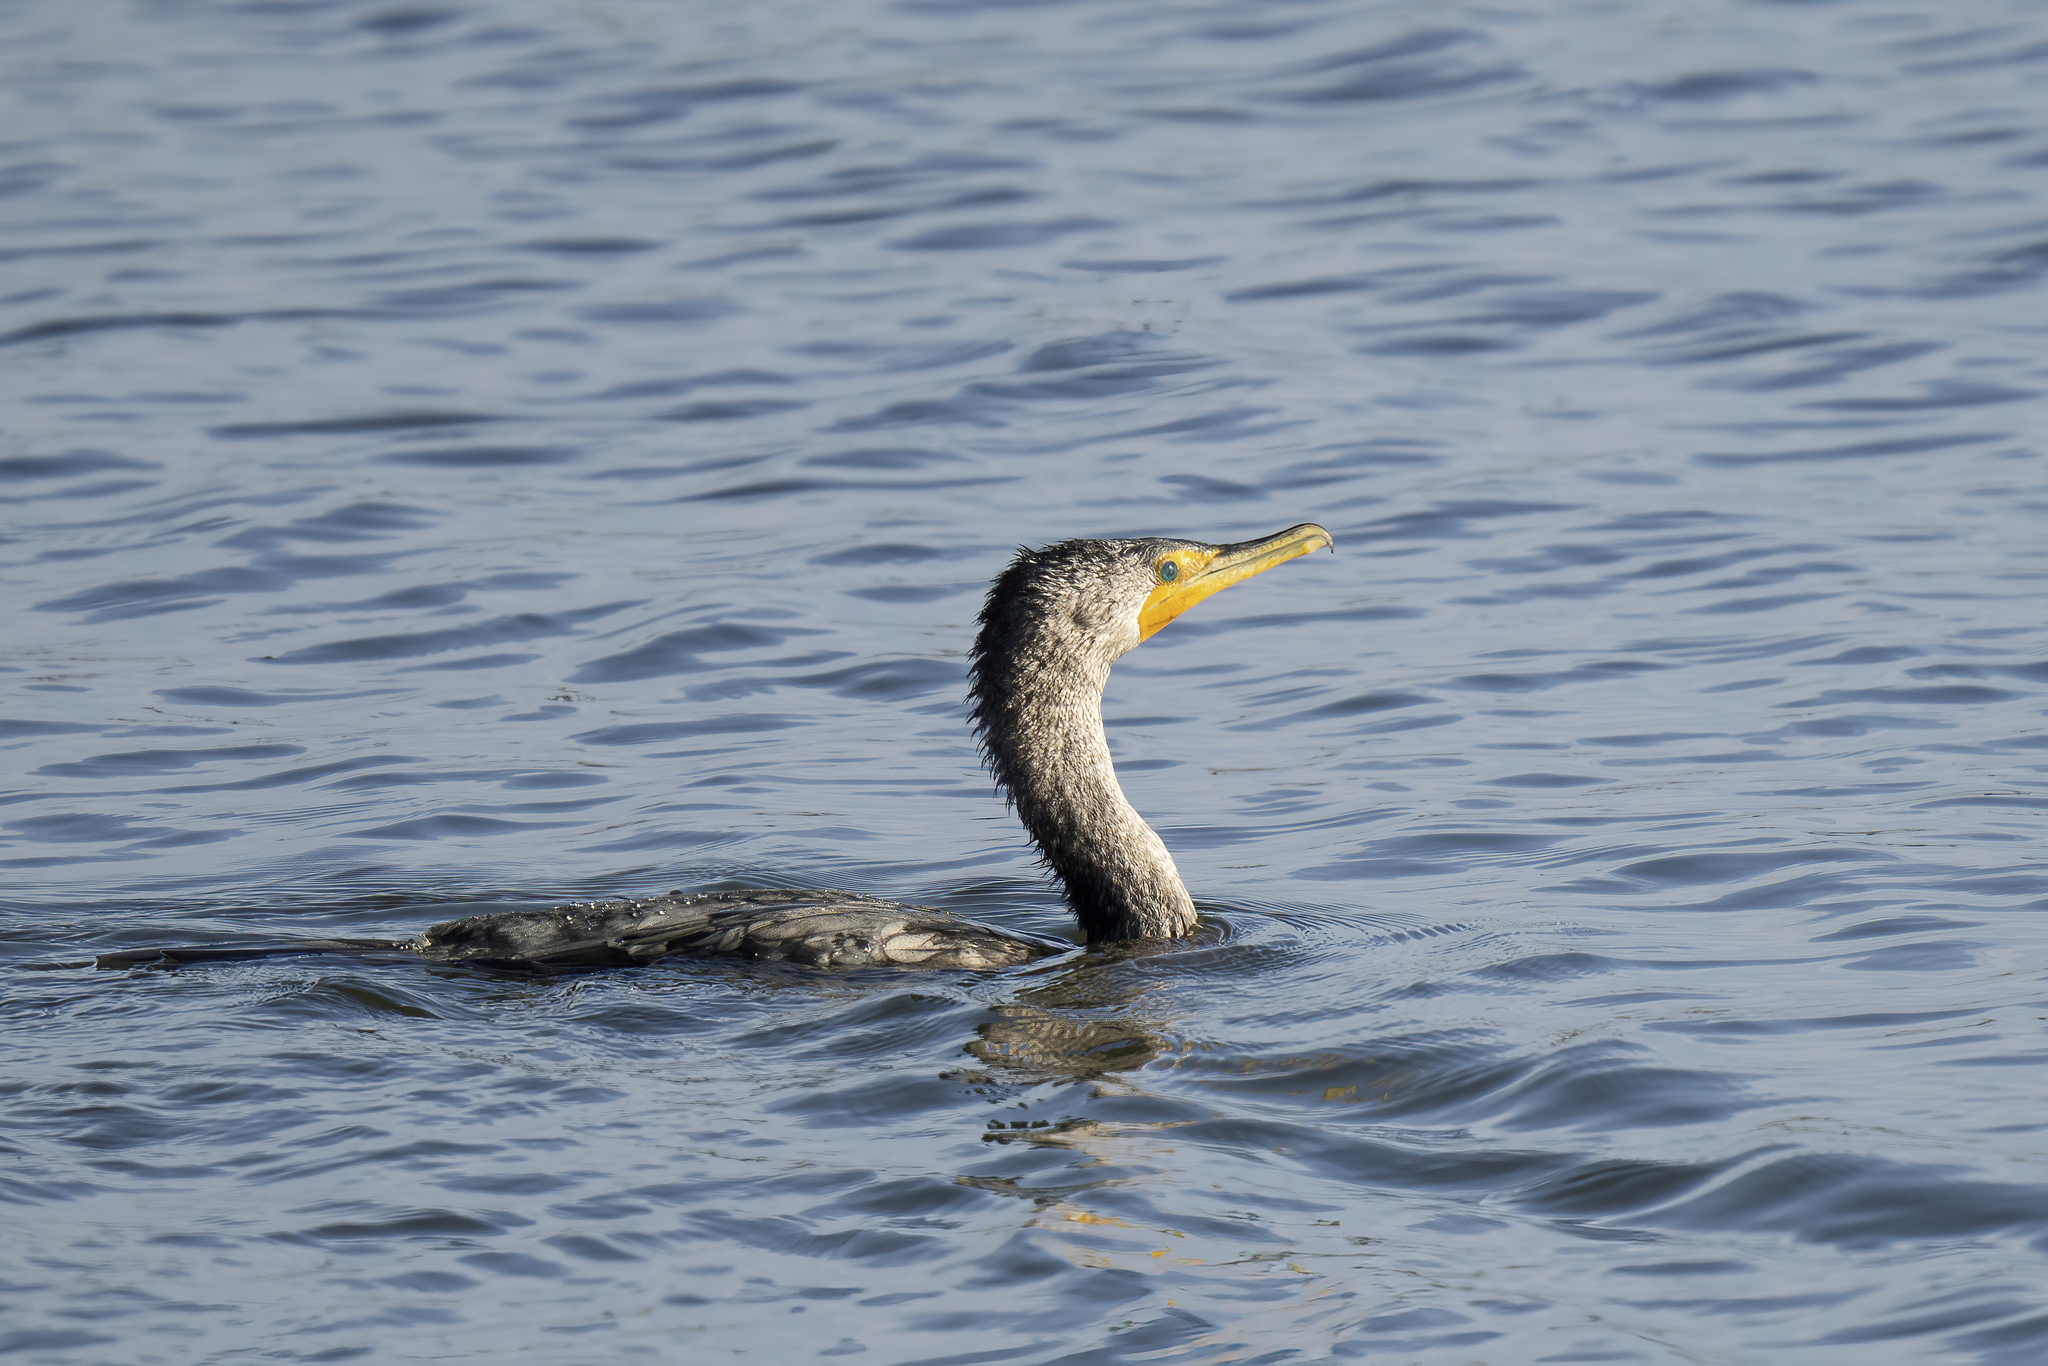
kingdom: Animalia
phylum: Chordata
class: Aves
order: Suliformes
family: Phalacrocoracidae
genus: Phalacrocorax
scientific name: Phalacrocorax auritus
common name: Double-crested cormorant
